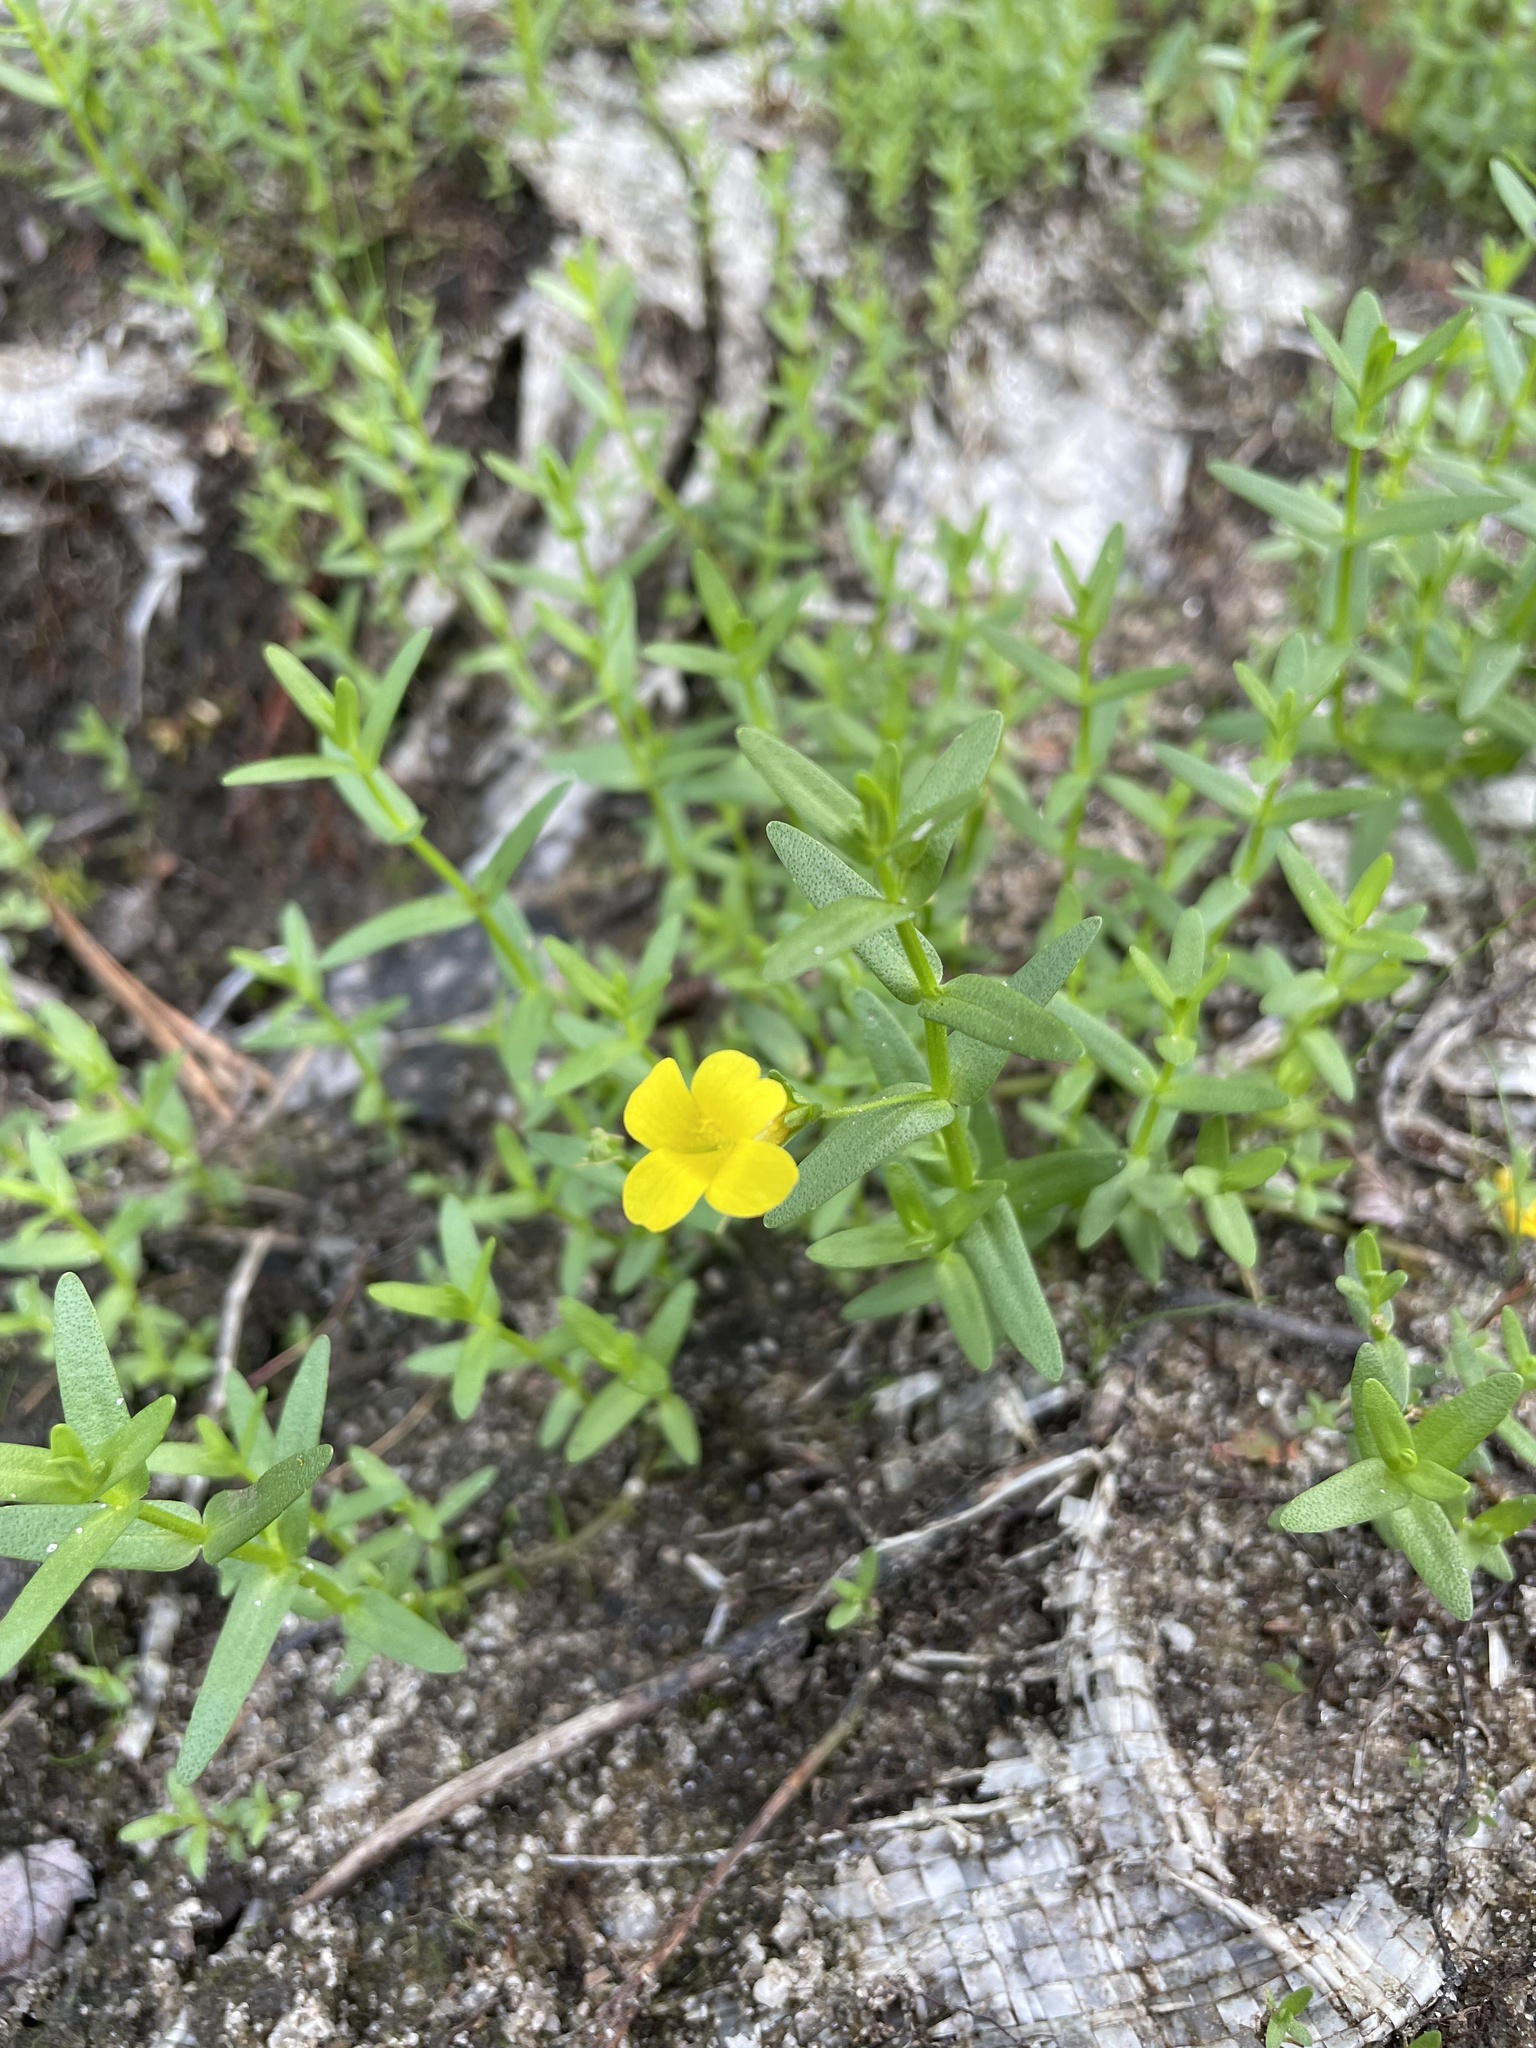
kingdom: Plantae
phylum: Tracheophyta
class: Magnoliopsida
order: Lamiales
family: Plantaginaceae
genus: Gratiola
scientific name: Gratiola lutea
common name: Golden hedge-hyssop
